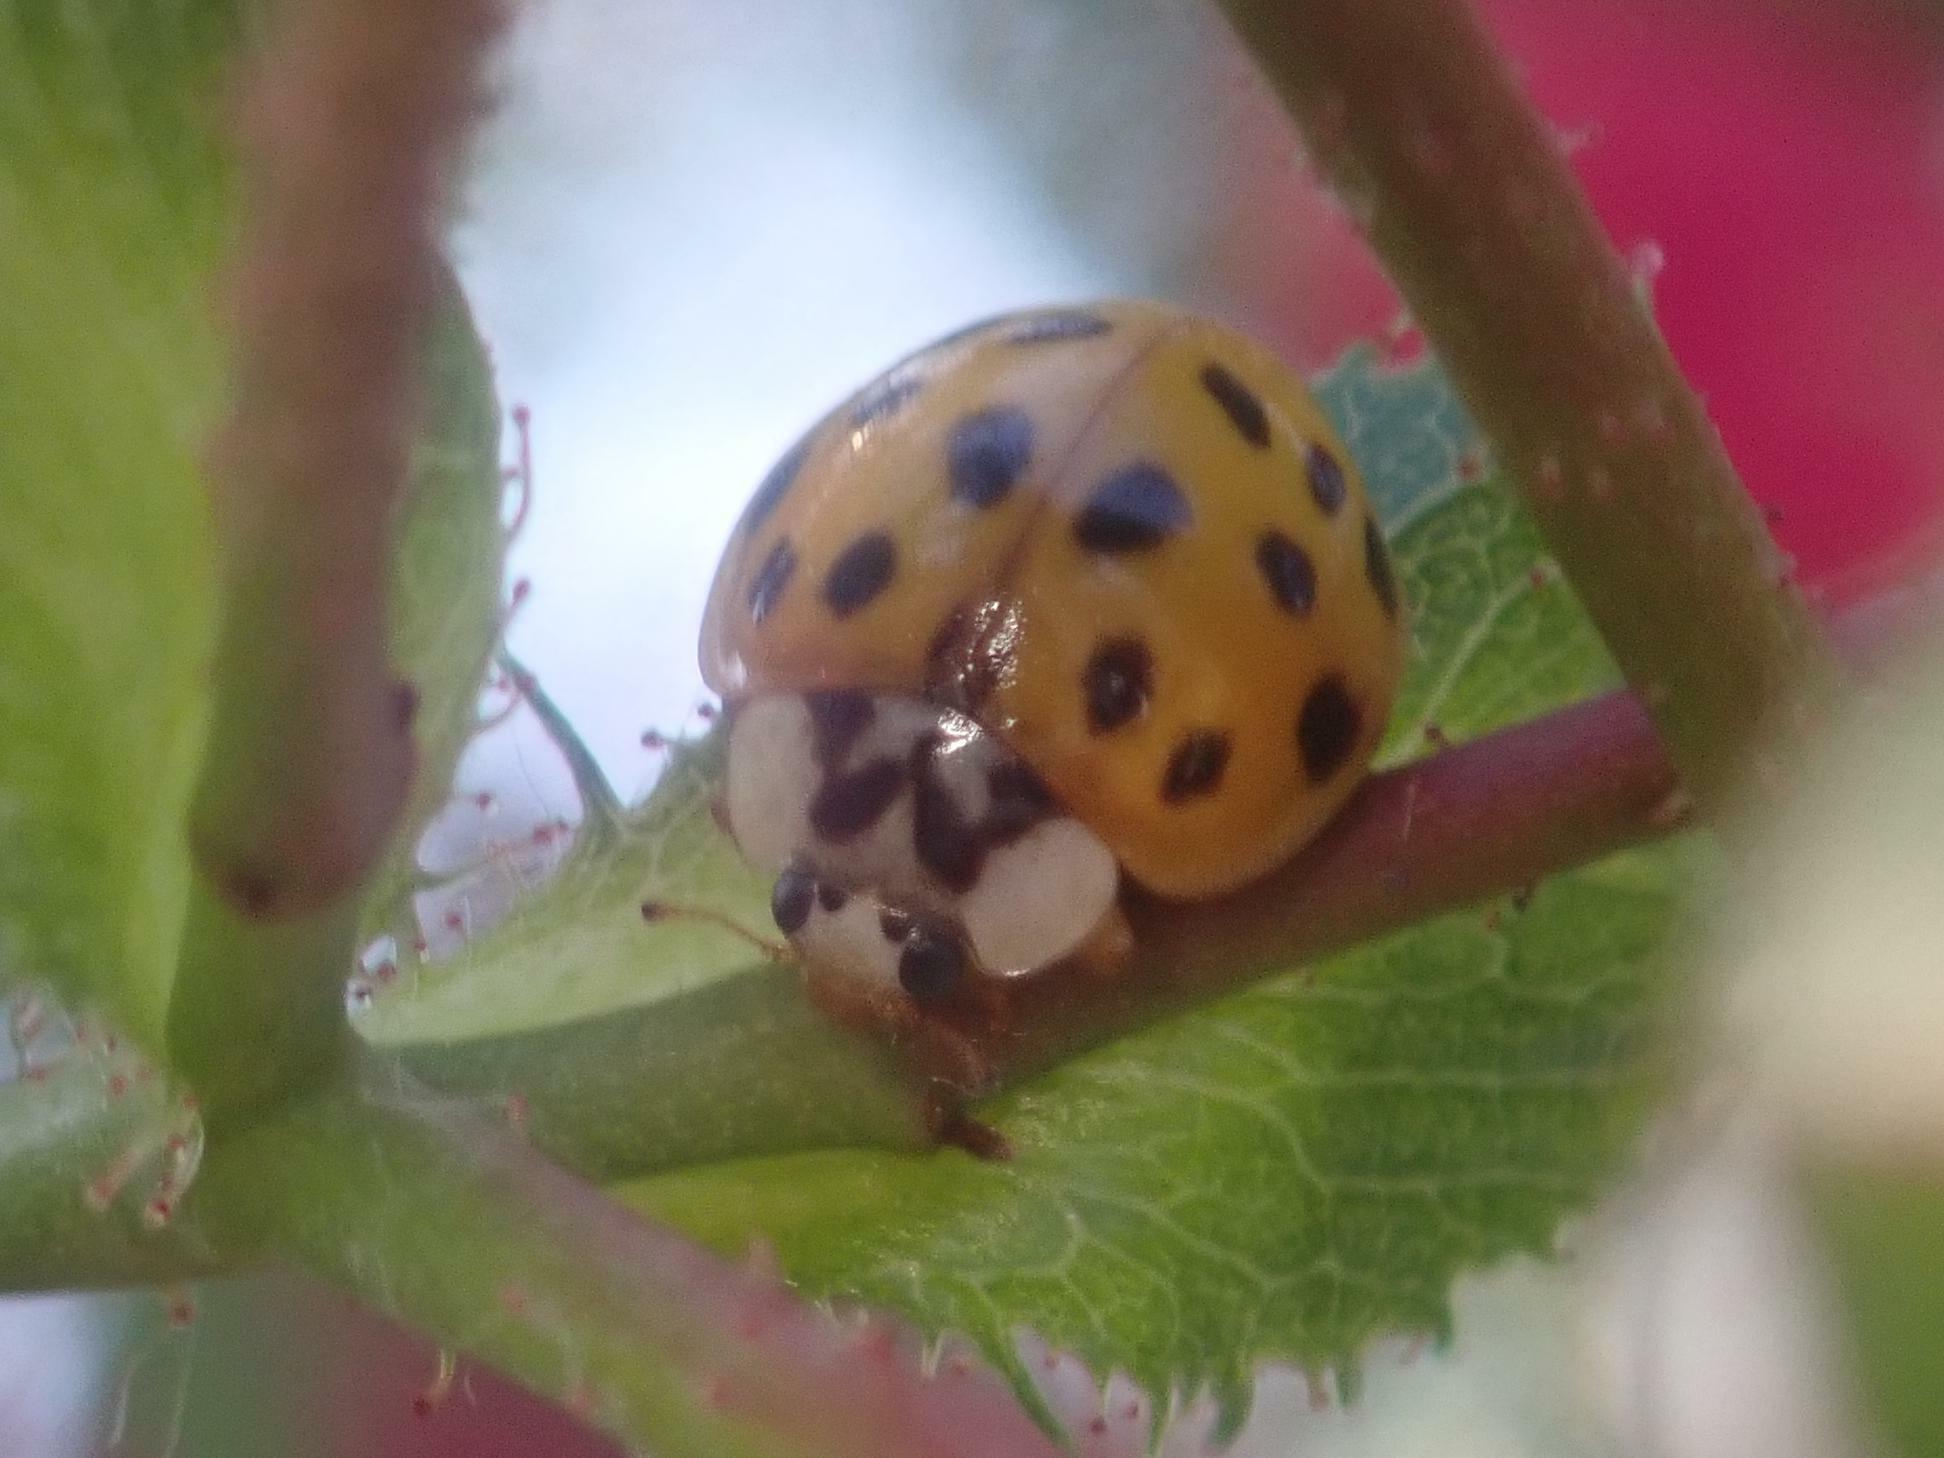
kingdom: Animalia
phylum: Arthropoda
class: Insecta
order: Coleoptera
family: Coccinellidae
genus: Harmonia
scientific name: Harmonia axyridis
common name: Harlequin ladybird
